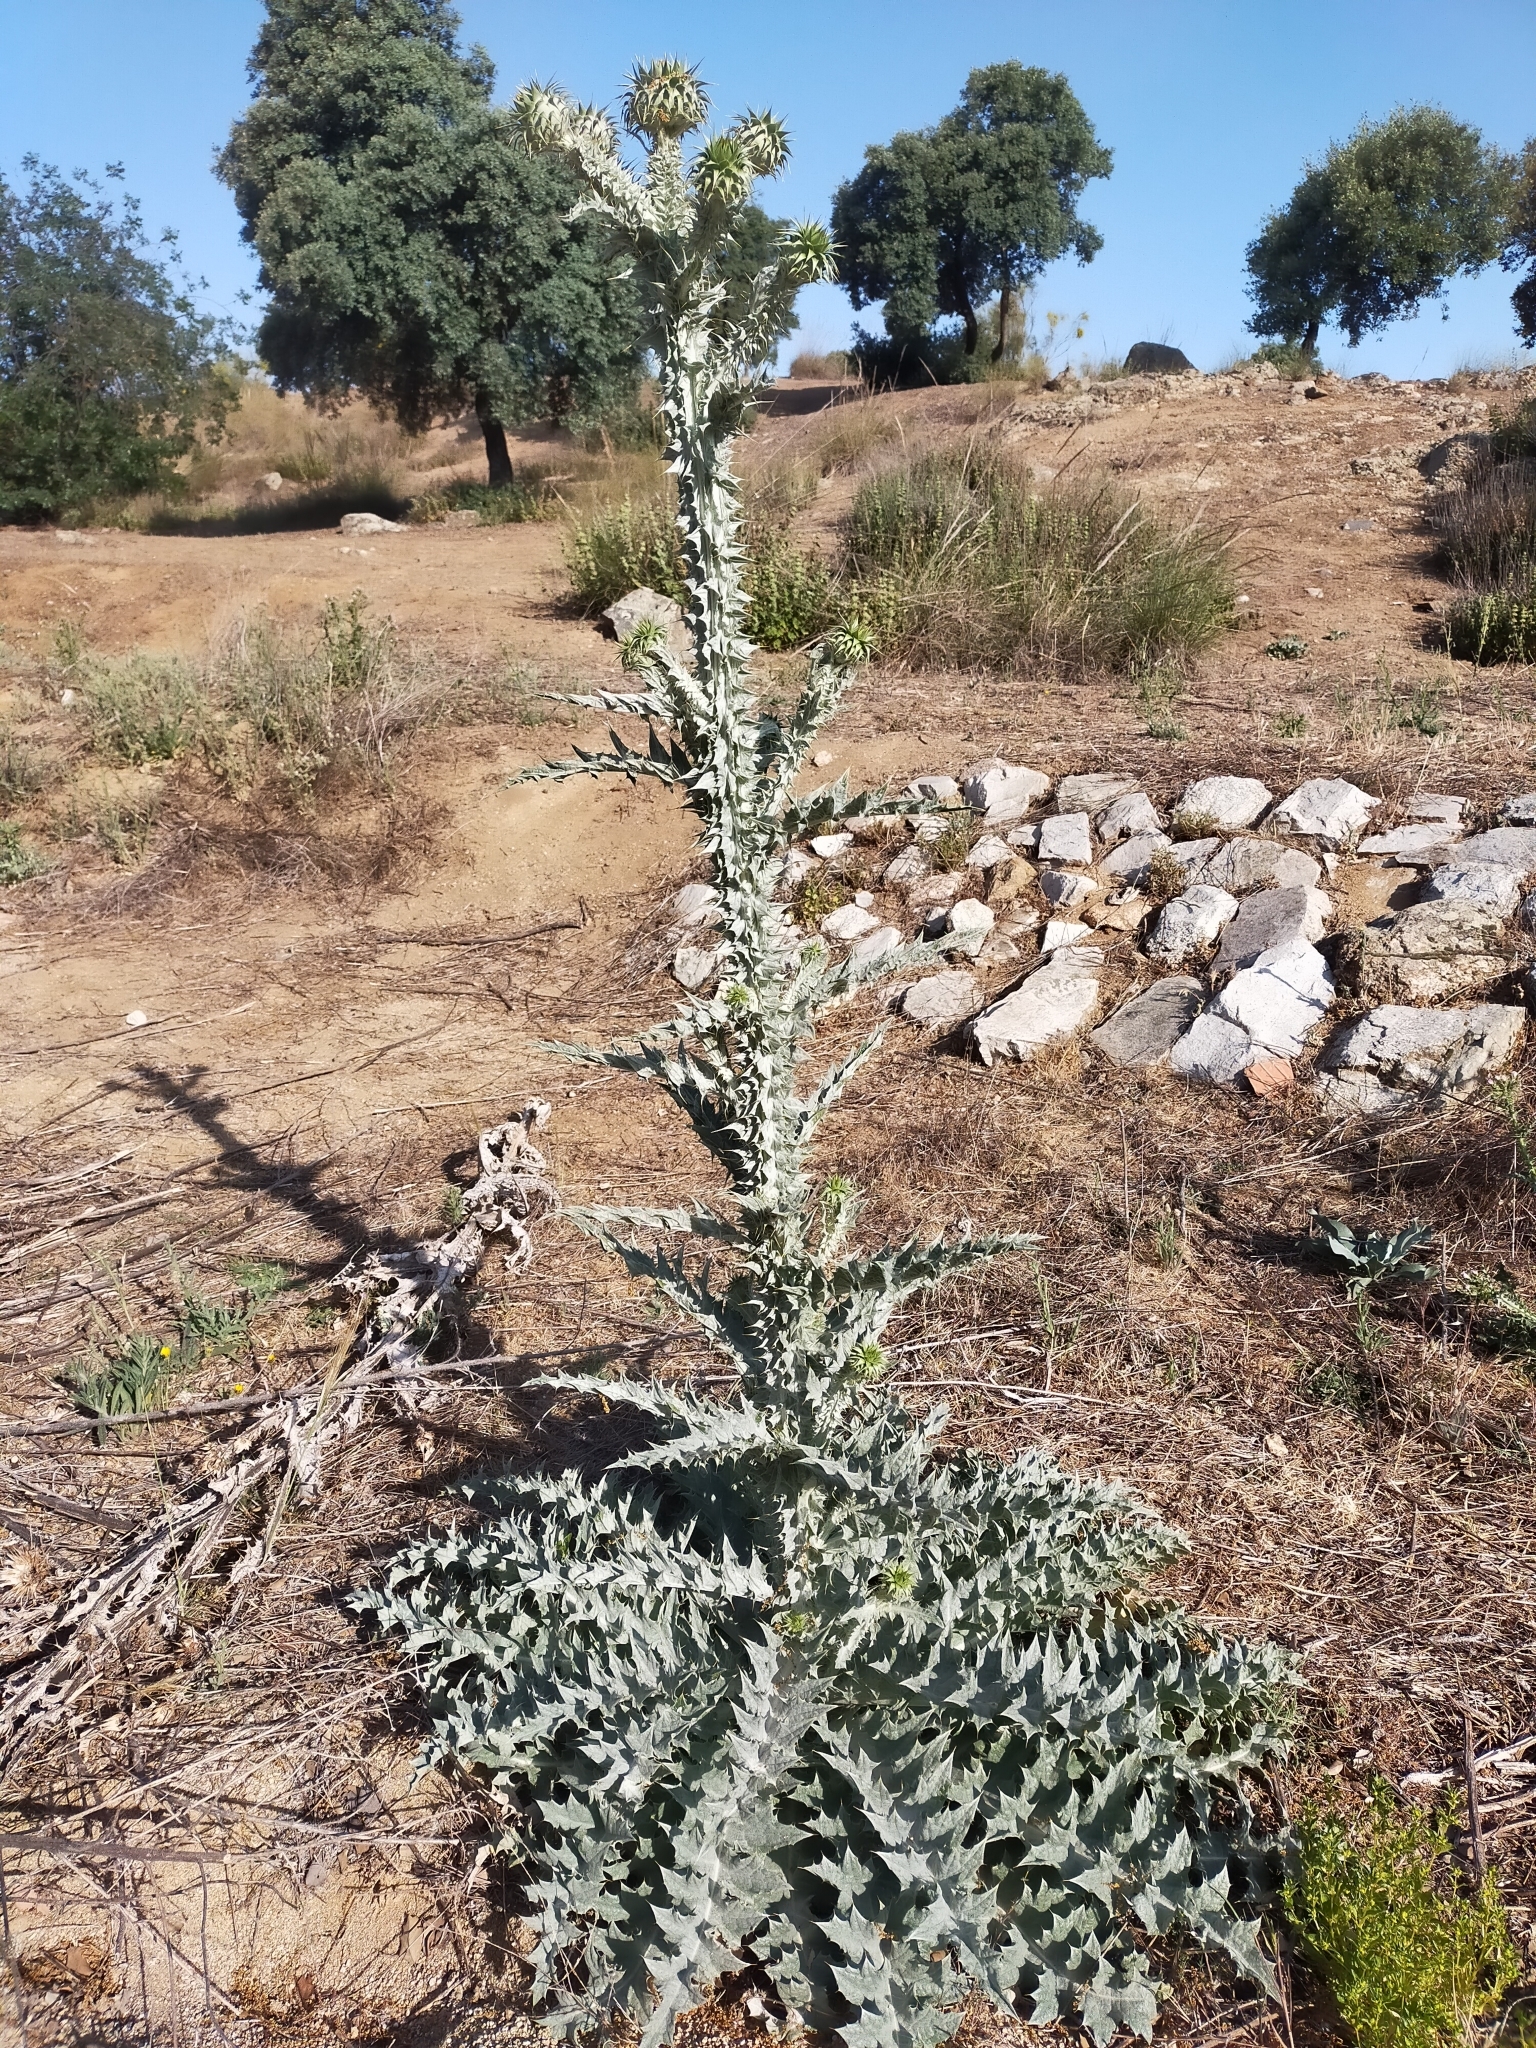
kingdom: Plantae
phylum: Tracheophyta
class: Magnoliopsida
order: Asterales
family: Asteraceae
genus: Onopordum
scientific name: Onopordum illyricum
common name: Illyrian thistle
